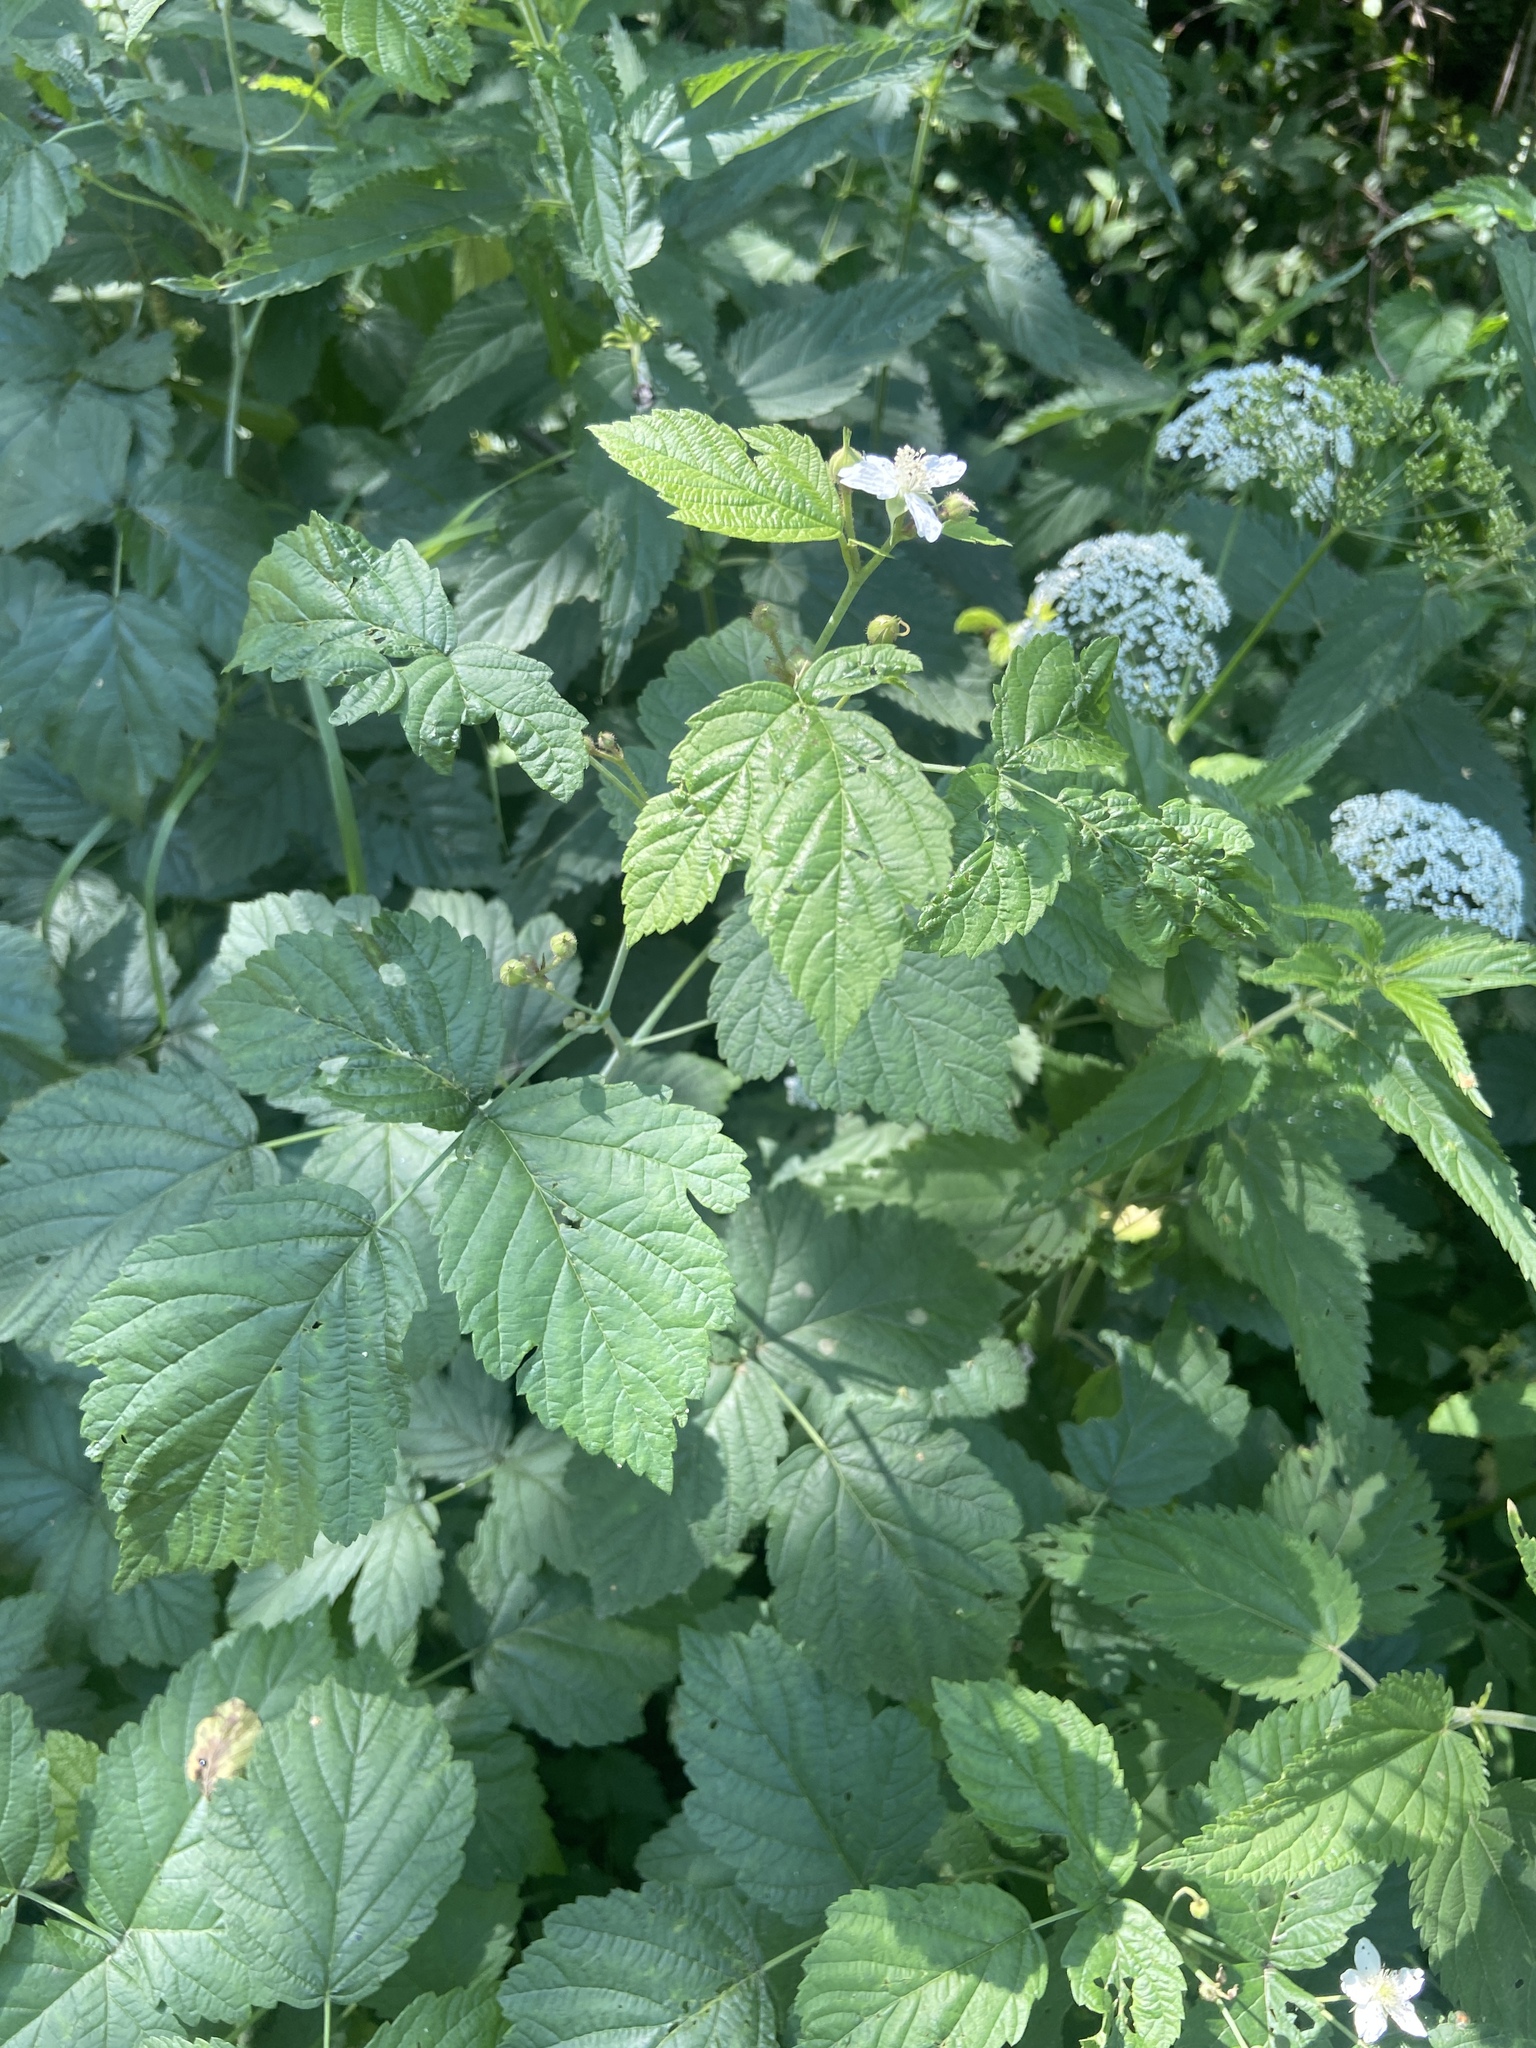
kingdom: Plantae
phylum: Tracheophyta
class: Magnoliopsida
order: Rosales
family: Rosaceae
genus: Rubus
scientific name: Rubus caesius
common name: Dewberry
